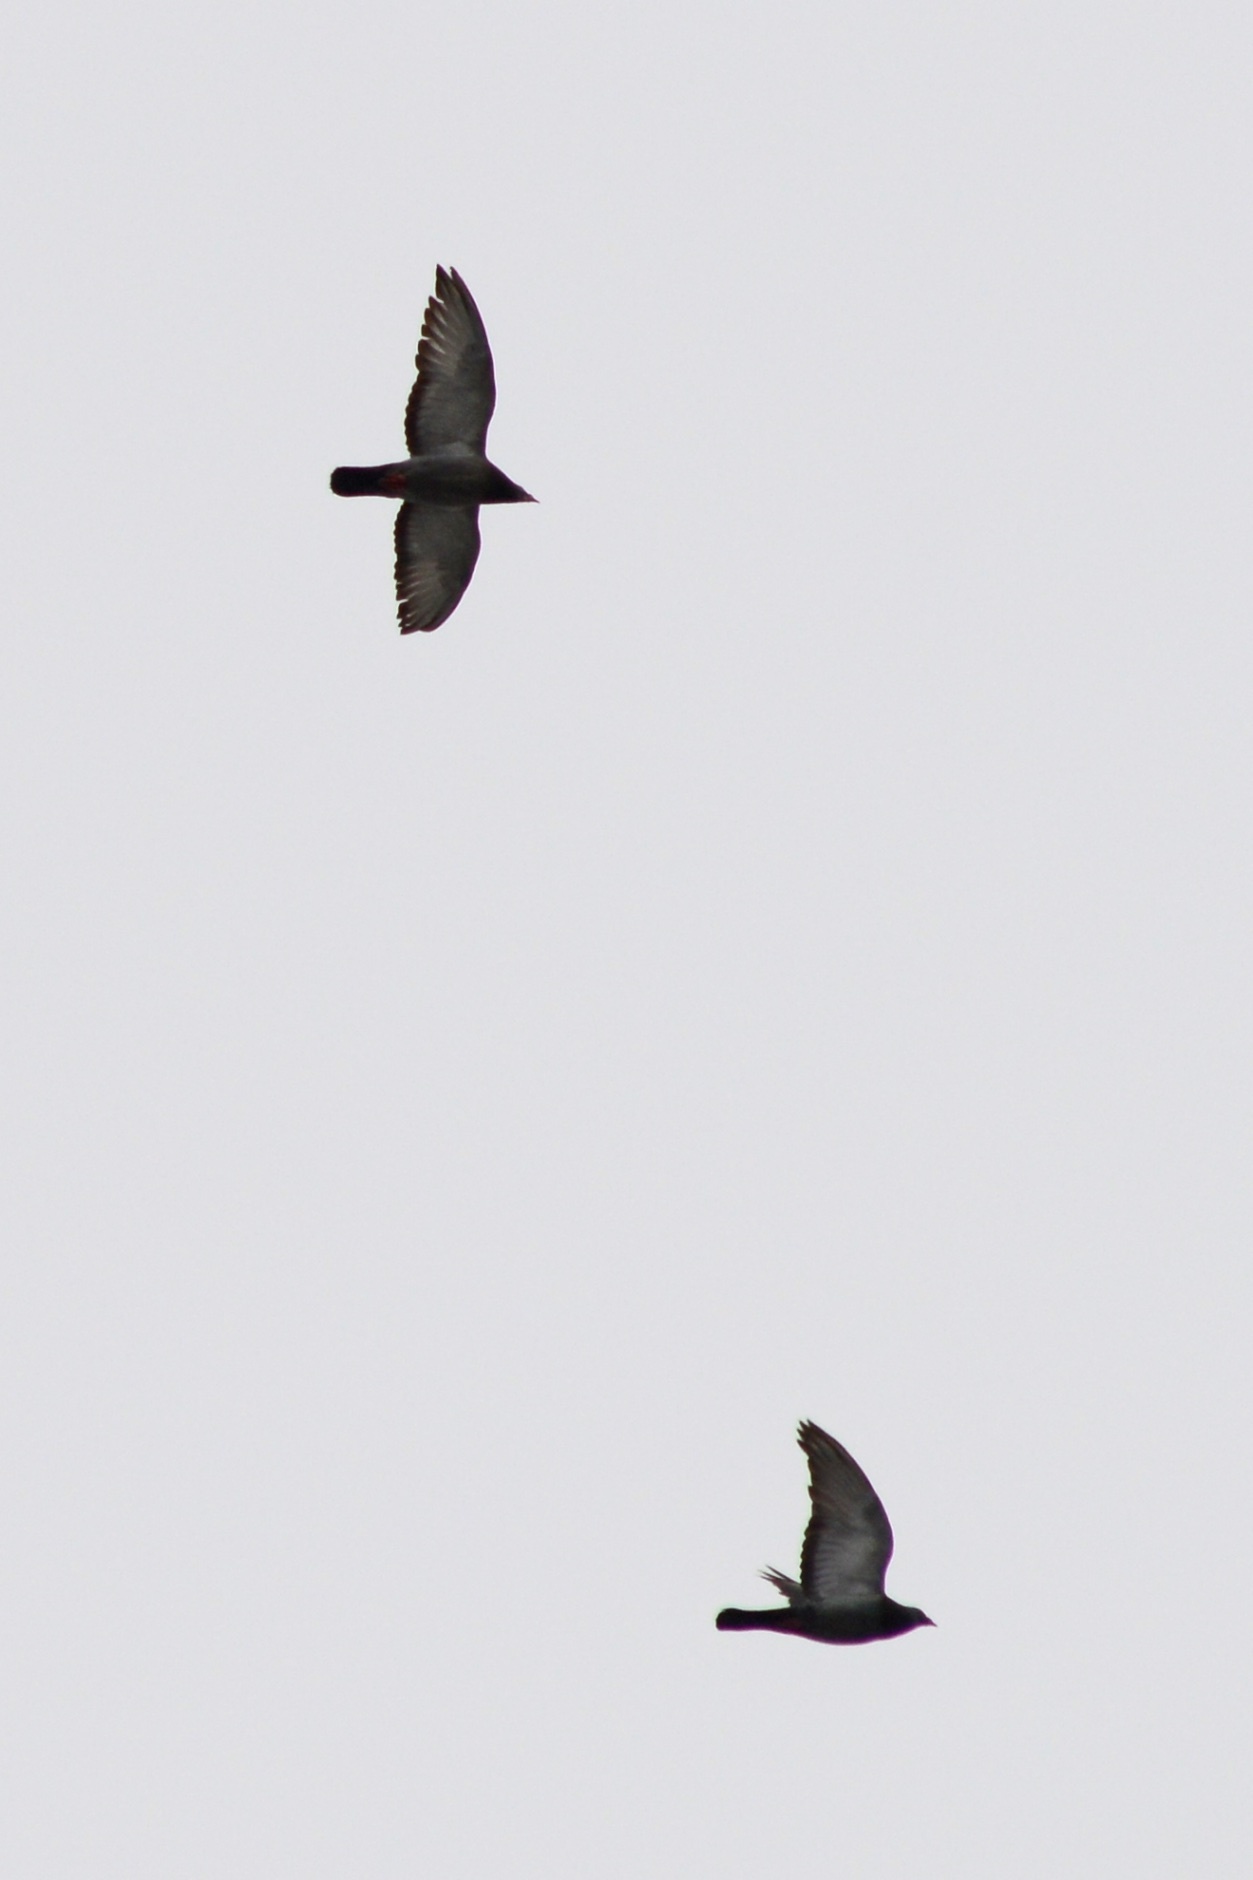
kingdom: Animalia
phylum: Chordata
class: Aves
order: Columbiformes
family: Columbidae
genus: Columba
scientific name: Columba livia
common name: Rock pigeon
